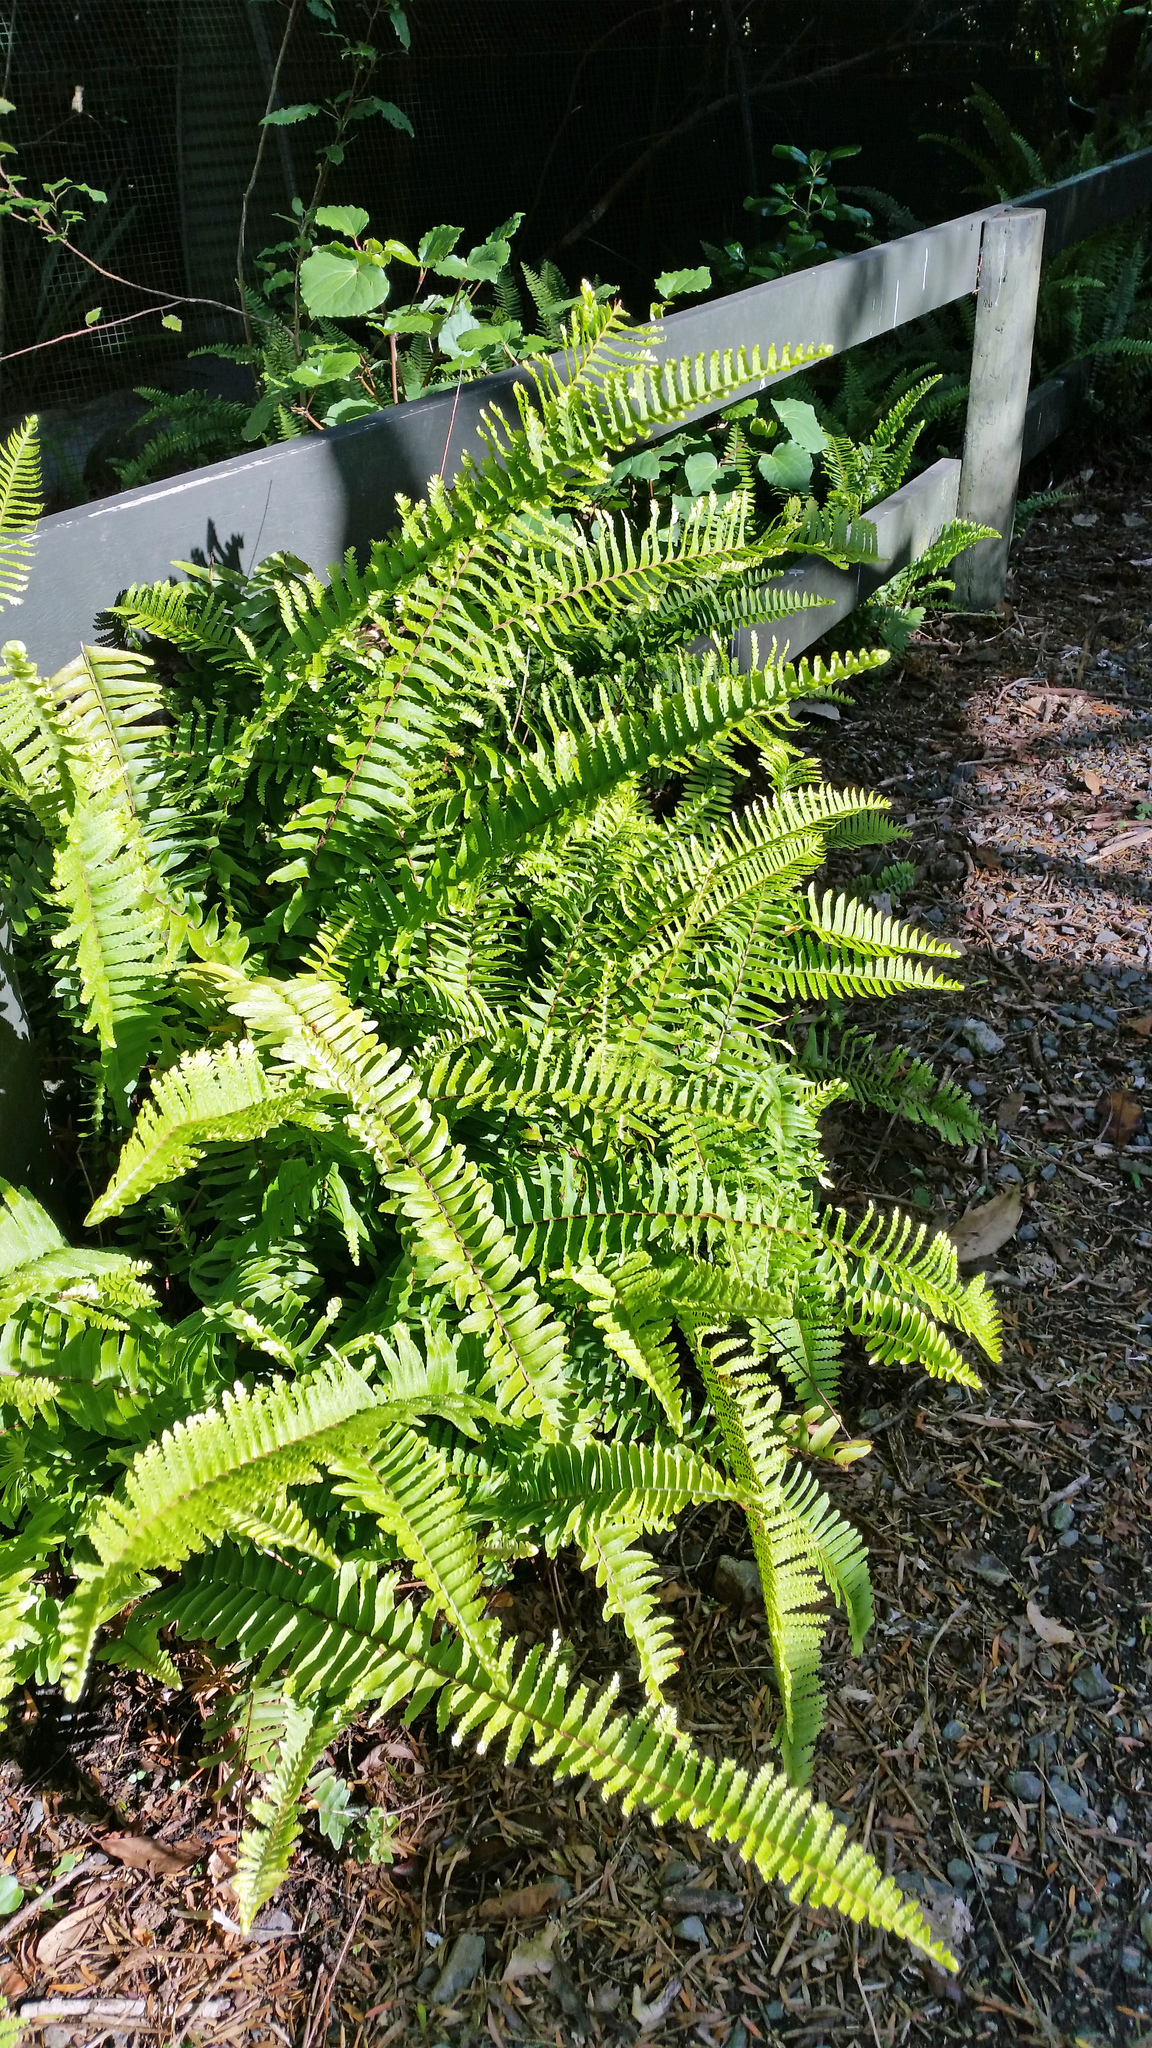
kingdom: Plantae
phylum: Tracheophyta
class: Polypodiopsida
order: Polypodiales
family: Nephrolepidaceae
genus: Nephrolepis
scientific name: Nephrolepis cordifolia
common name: Narrow swordfern
